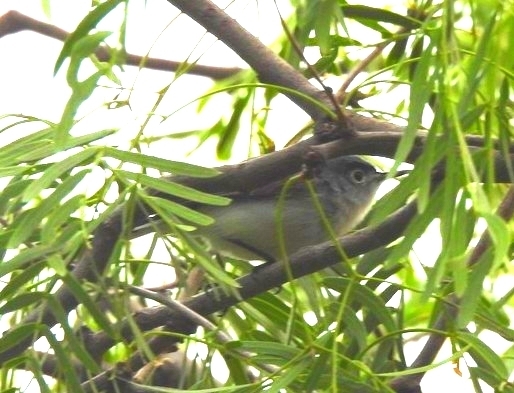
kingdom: Animalia
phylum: Chordata
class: Aves
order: Passeriformes
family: Polioptilidae
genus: Polioptila
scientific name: Polioptila caerulea
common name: Blue-gray gnatcatcher
